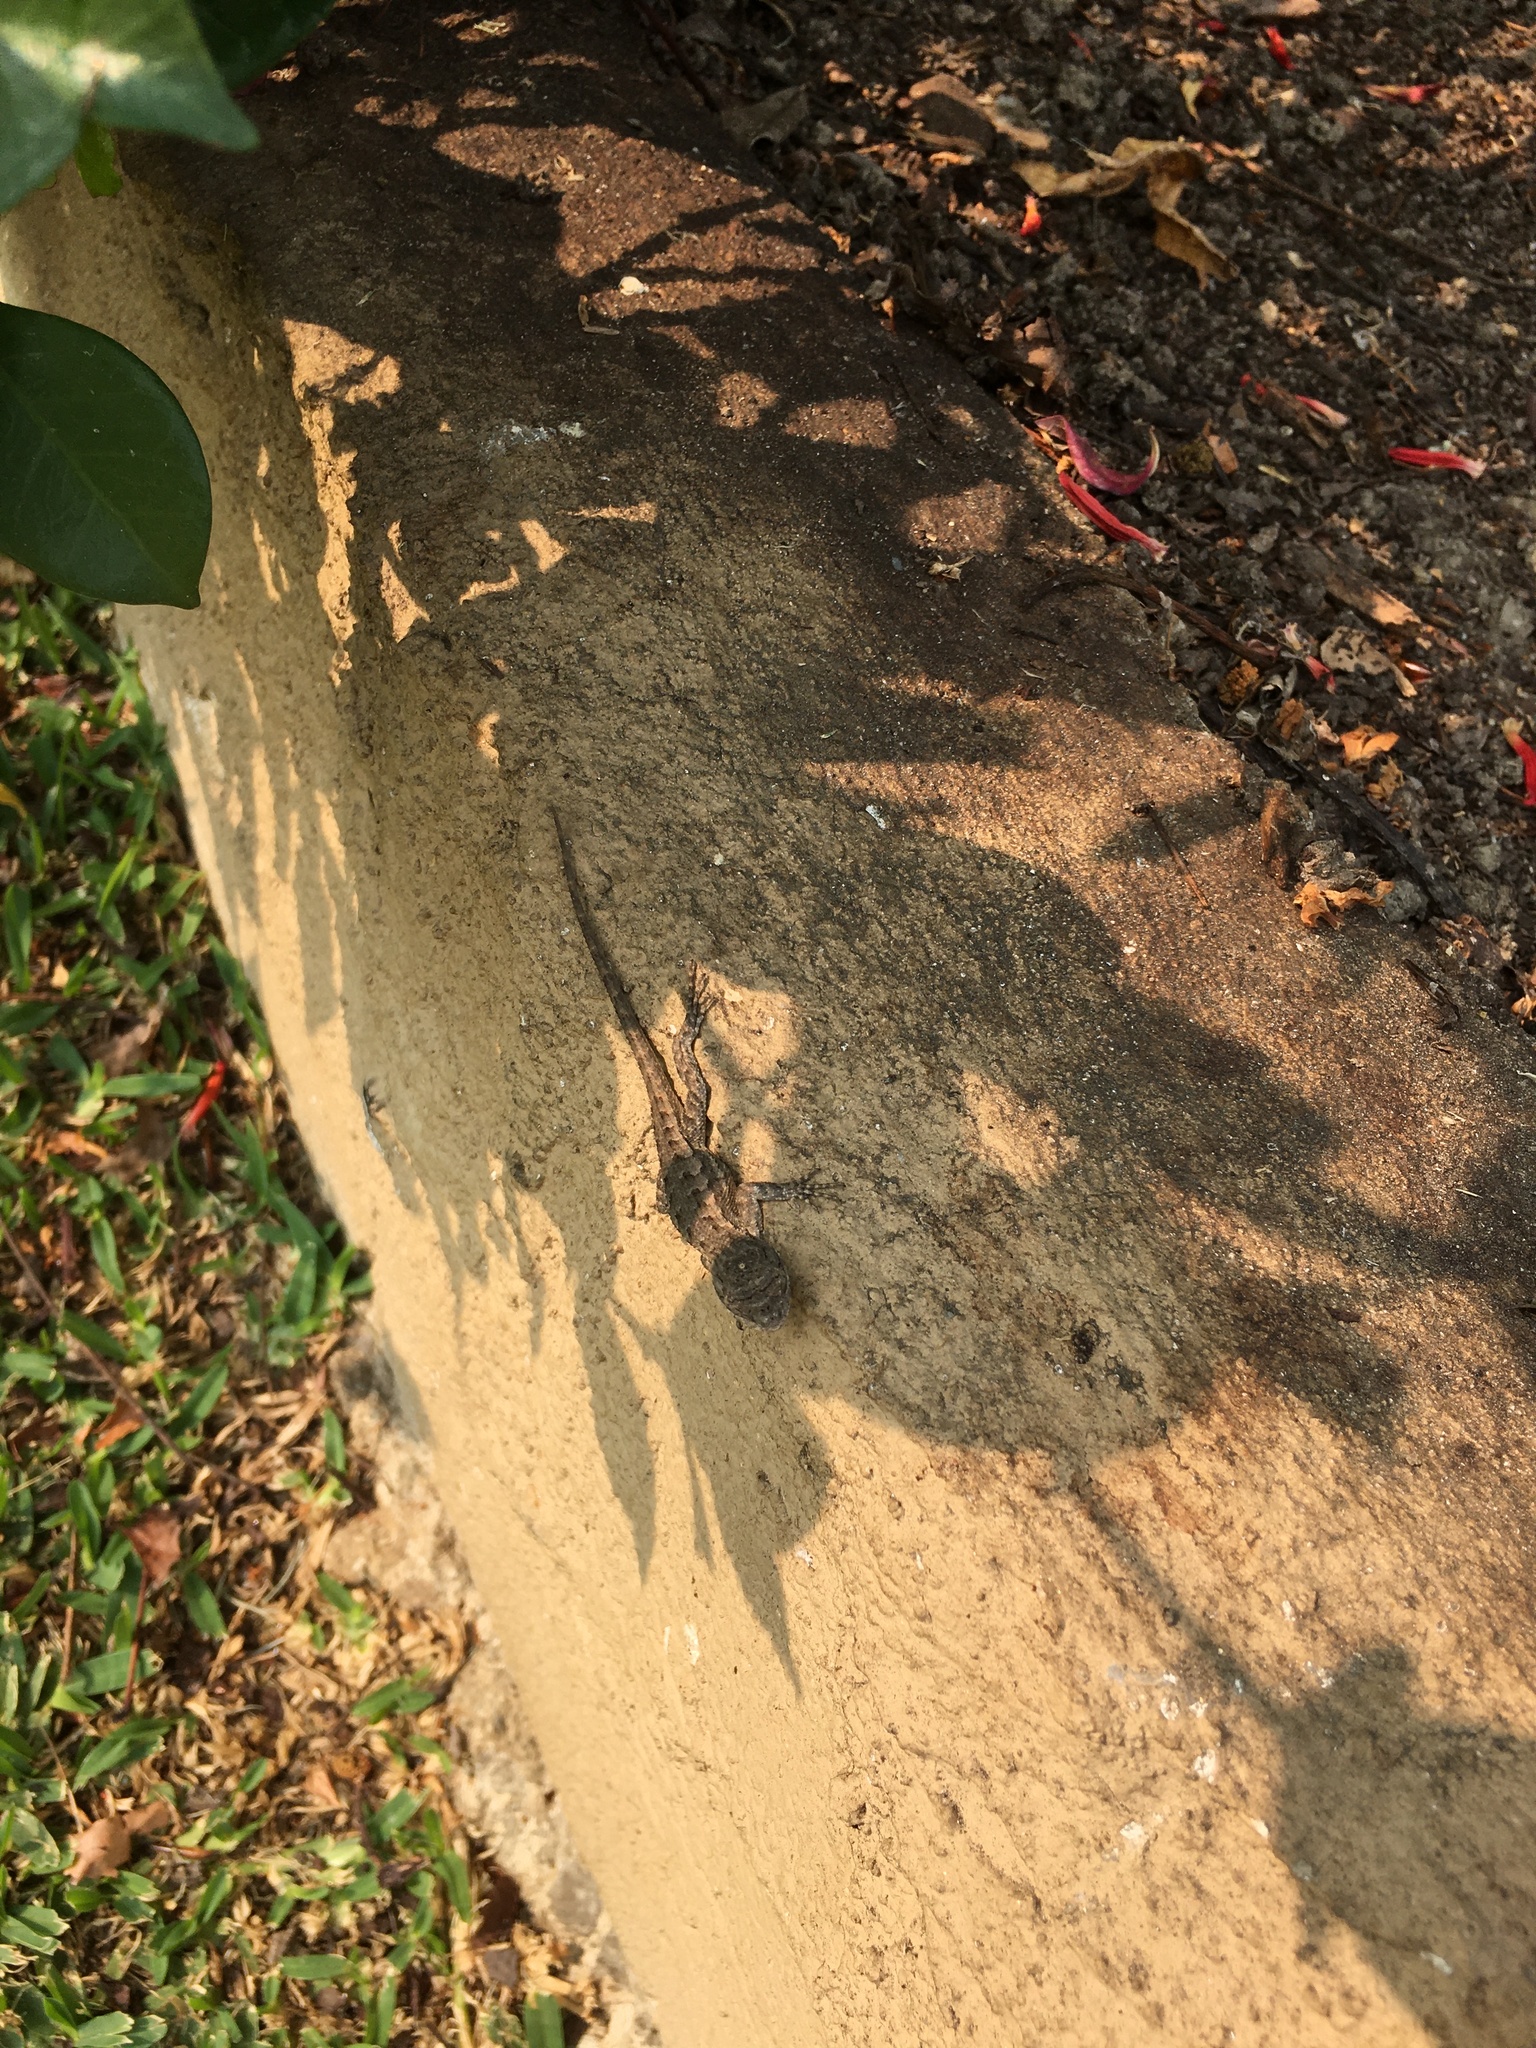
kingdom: Animalia
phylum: Chordata
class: Squamata
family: Phrynosomatidae
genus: Sceloporus
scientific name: Sceloporus occidentalis
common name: Western fence lizard
